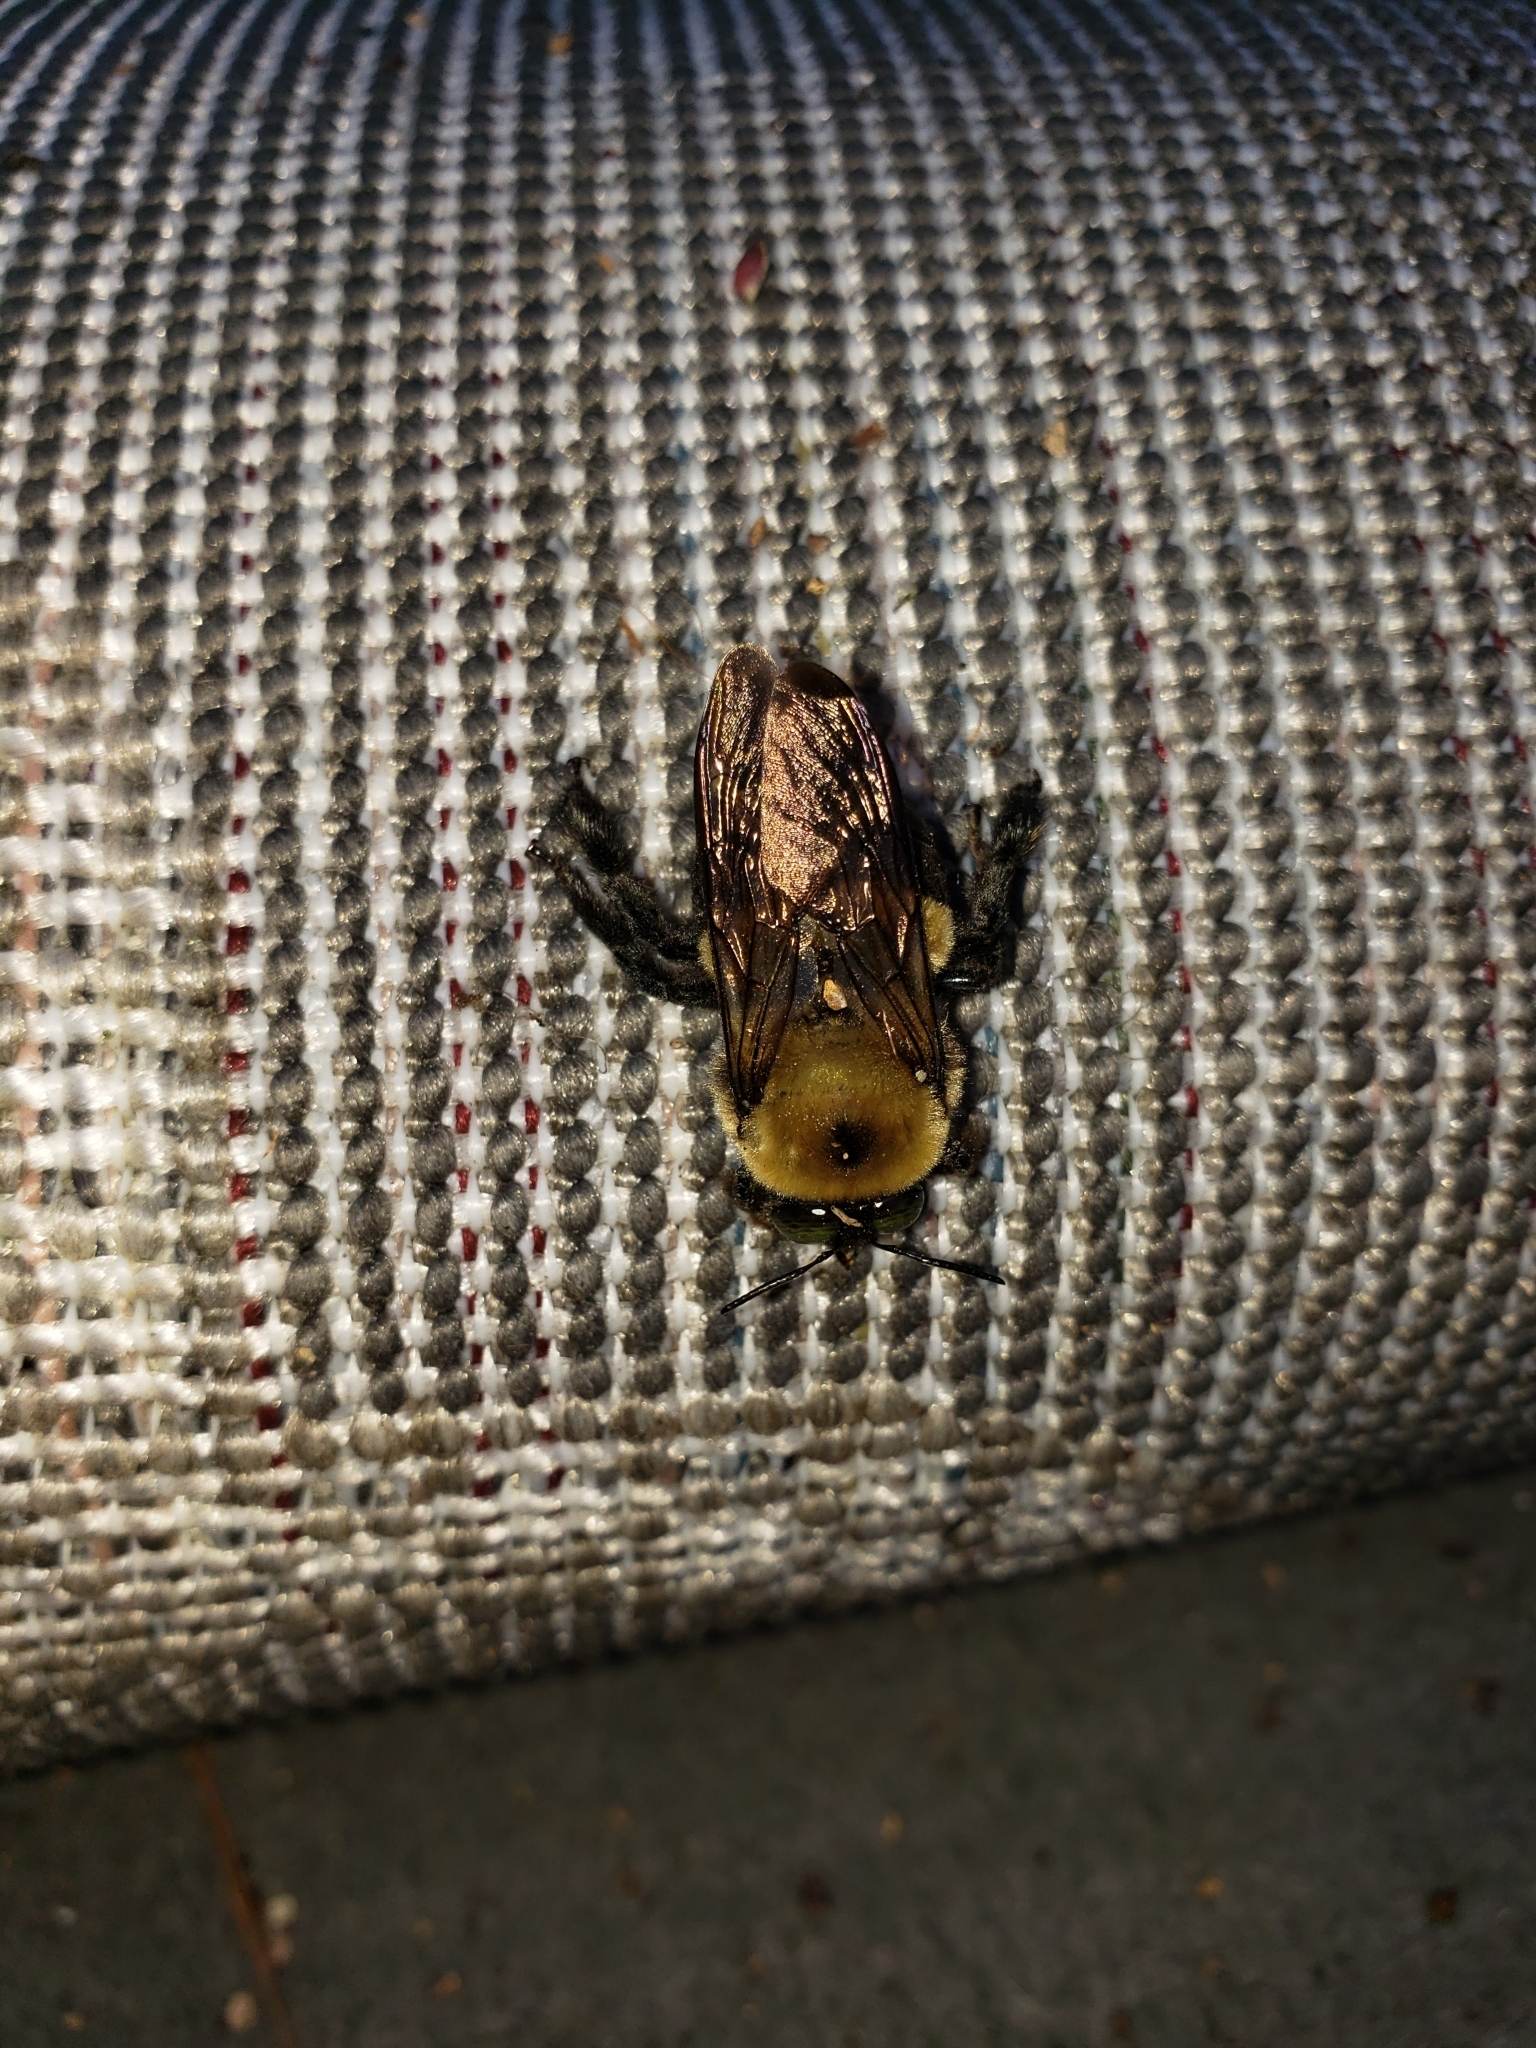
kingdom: Animalia
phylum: Arthropoda
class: Insecta
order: Hymenoptera
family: Apidae
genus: Xylocopa
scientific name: Xylocopa virginica
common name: Carpenter bee
